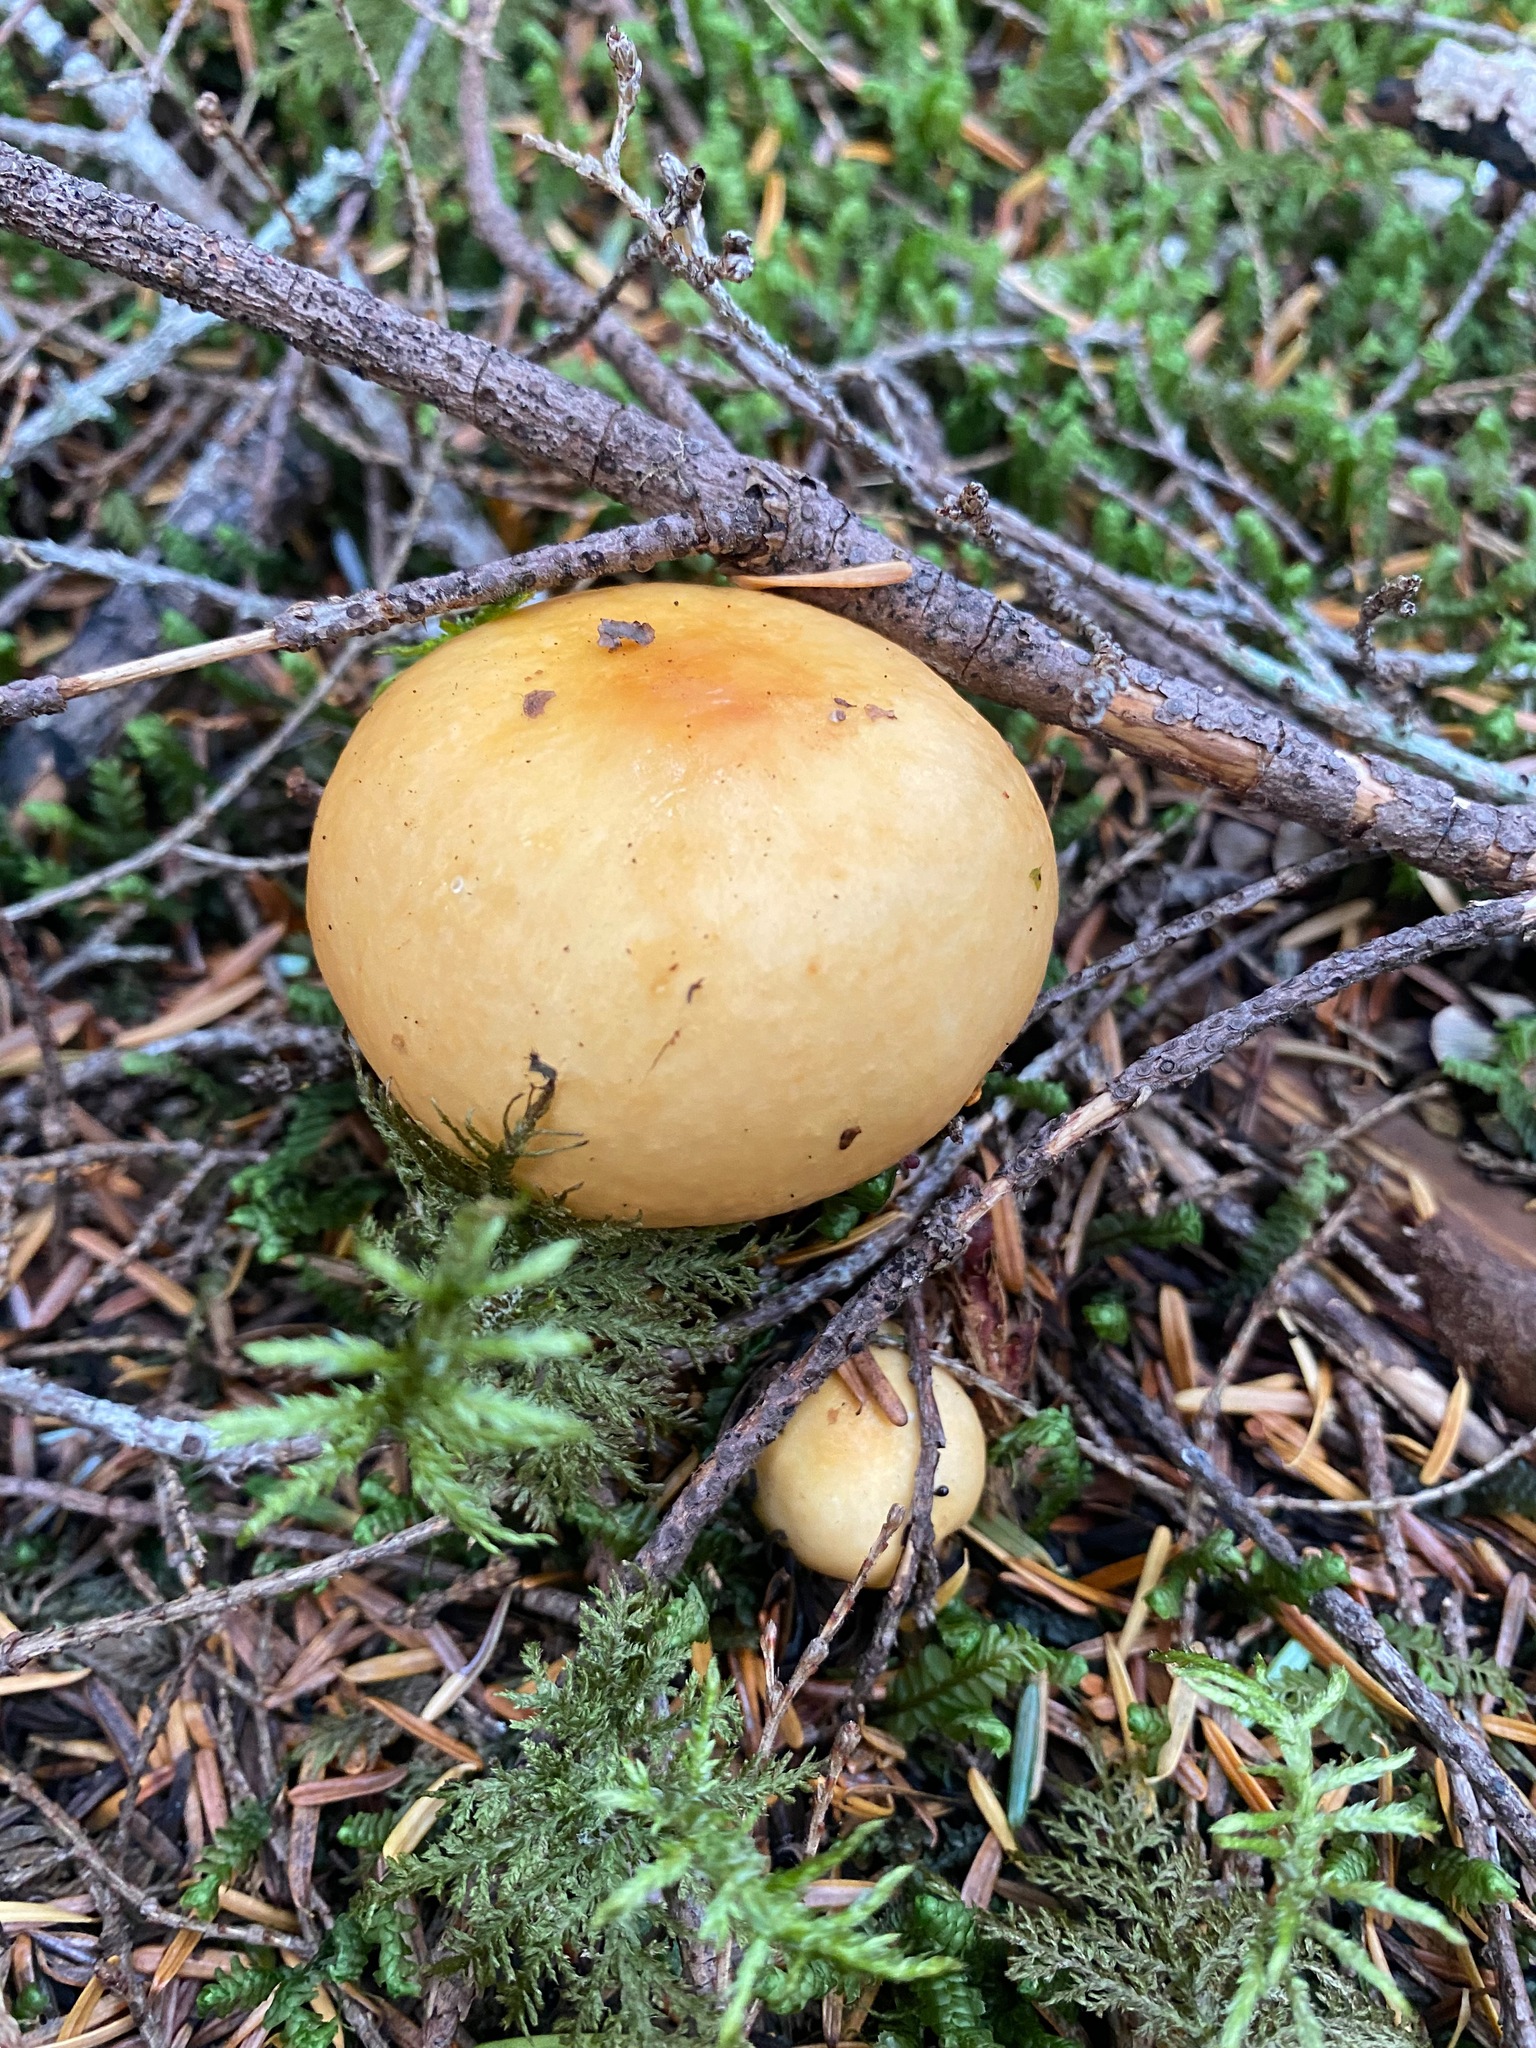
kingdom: Fungi
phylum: Basidiomycota
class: Agaricomycetes
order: Russulales
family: Russulaceae
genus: Russula
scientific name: Russula decolorans
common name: Copper brittlegill
